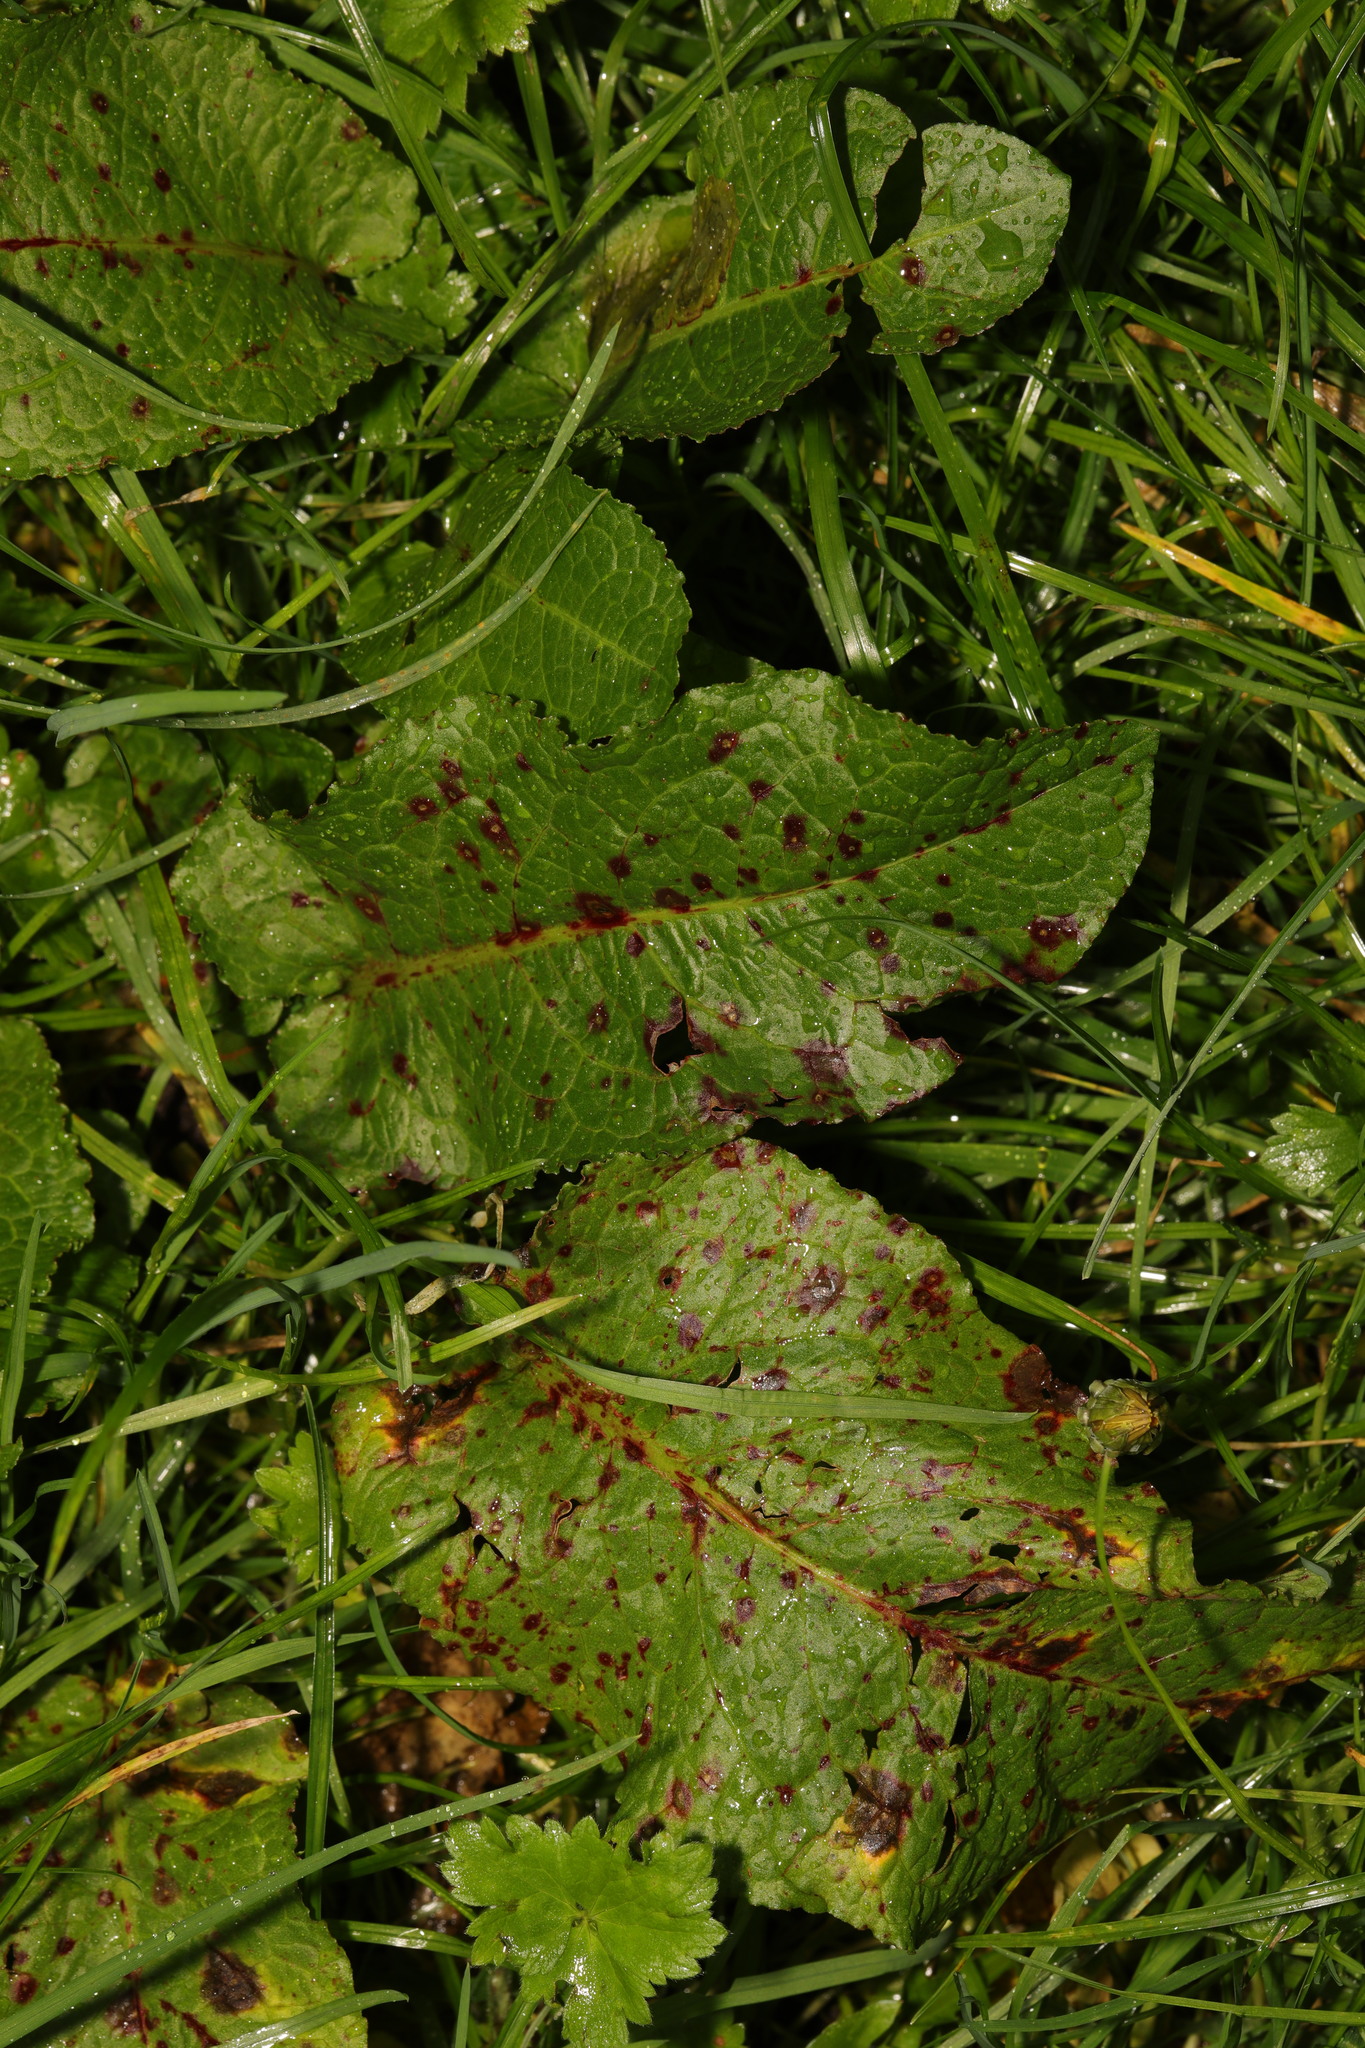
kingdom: Plantae
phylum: Tracheophyta
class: Magnoliopsida
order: Caryophyllales
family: Polygonaceae
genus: Rumex
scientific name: Rumex obtusifolius
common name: Bitter dock
